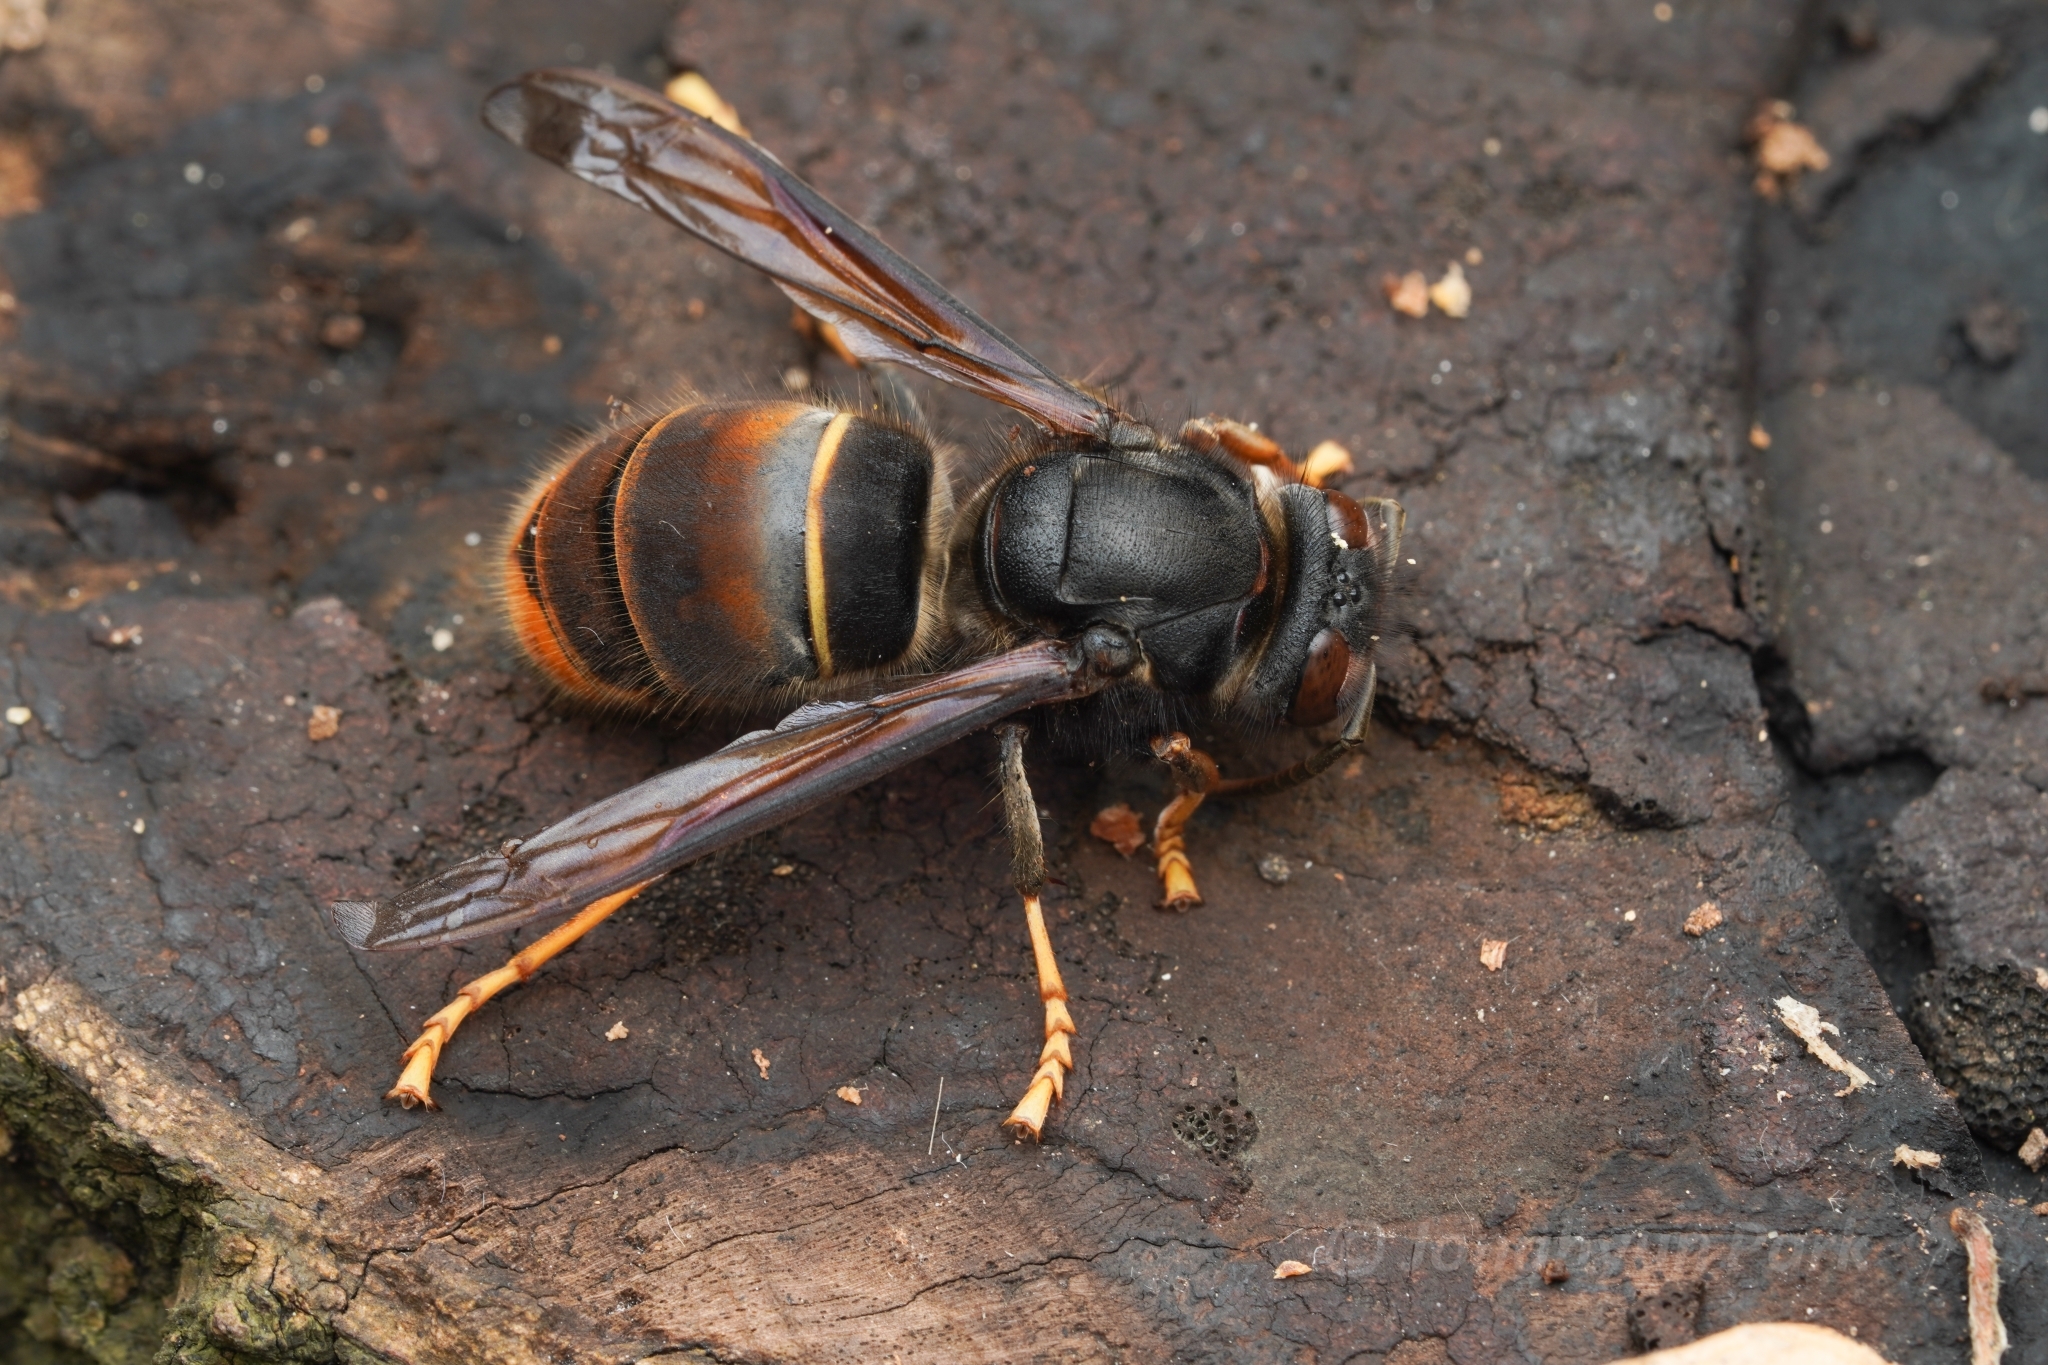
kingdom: Animalia
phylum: Arthropoda
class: Insecta
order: Hymenoptera
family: Vespidae
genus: Vespa
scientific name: Vespa velutina
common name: Asian hornet
